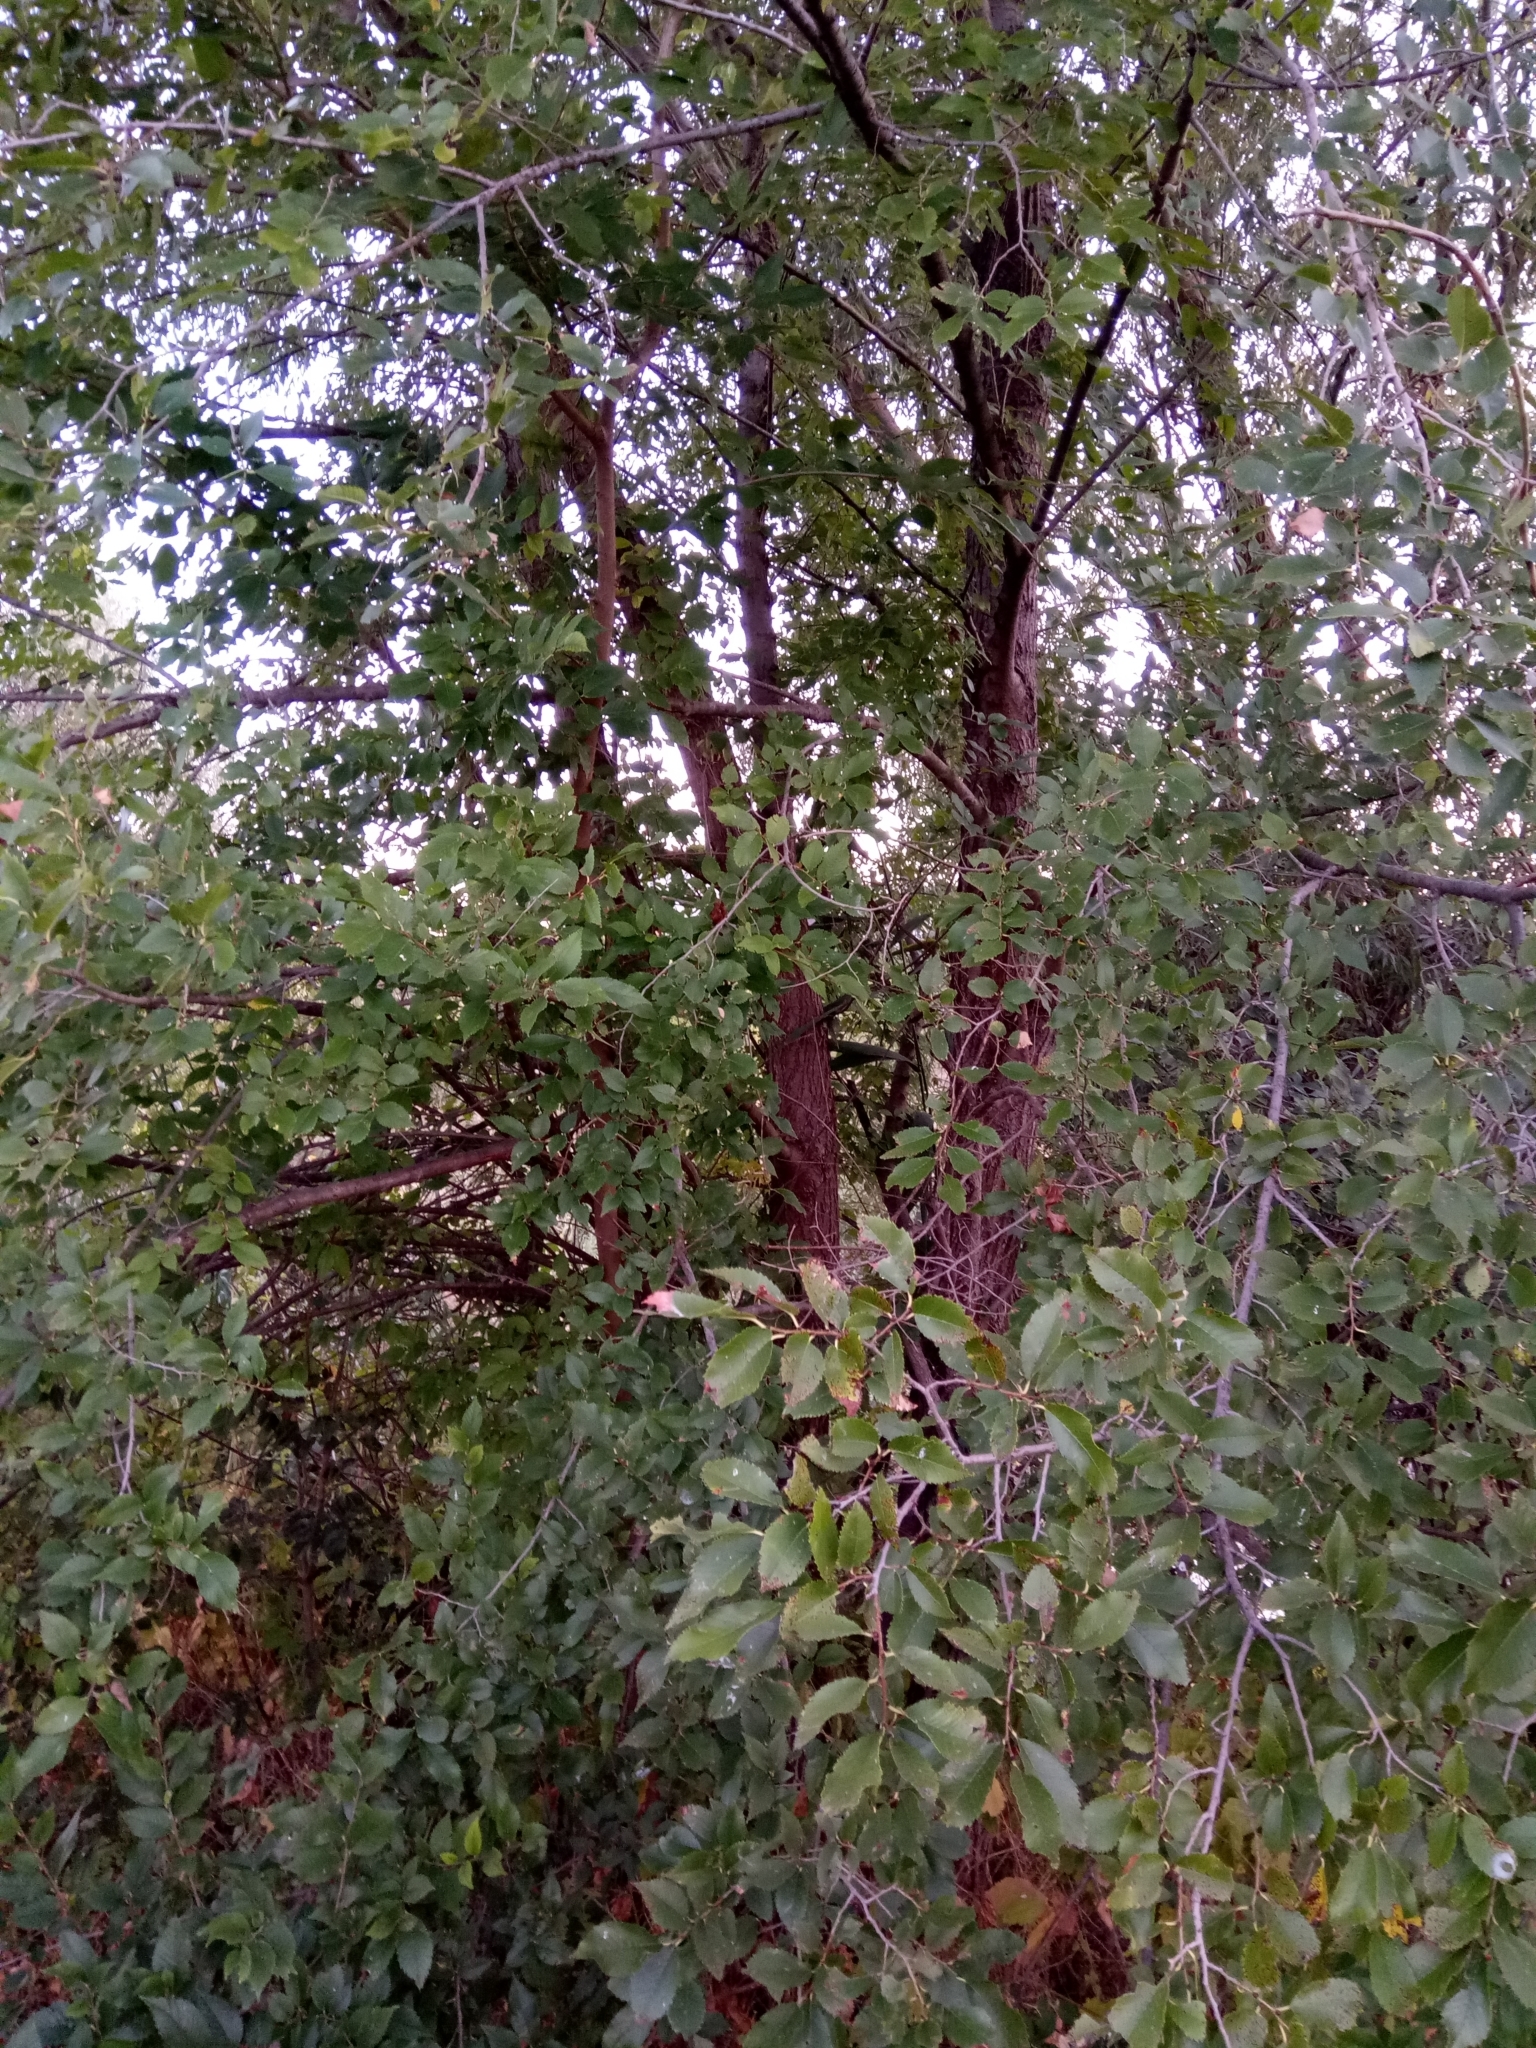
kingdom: Plantae
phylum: Tracheophyta
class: Magnoliopsida
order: Rosales
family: Ulmaceae
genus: Ulmus
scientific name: Ulmus pumila
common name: Siberian elm
